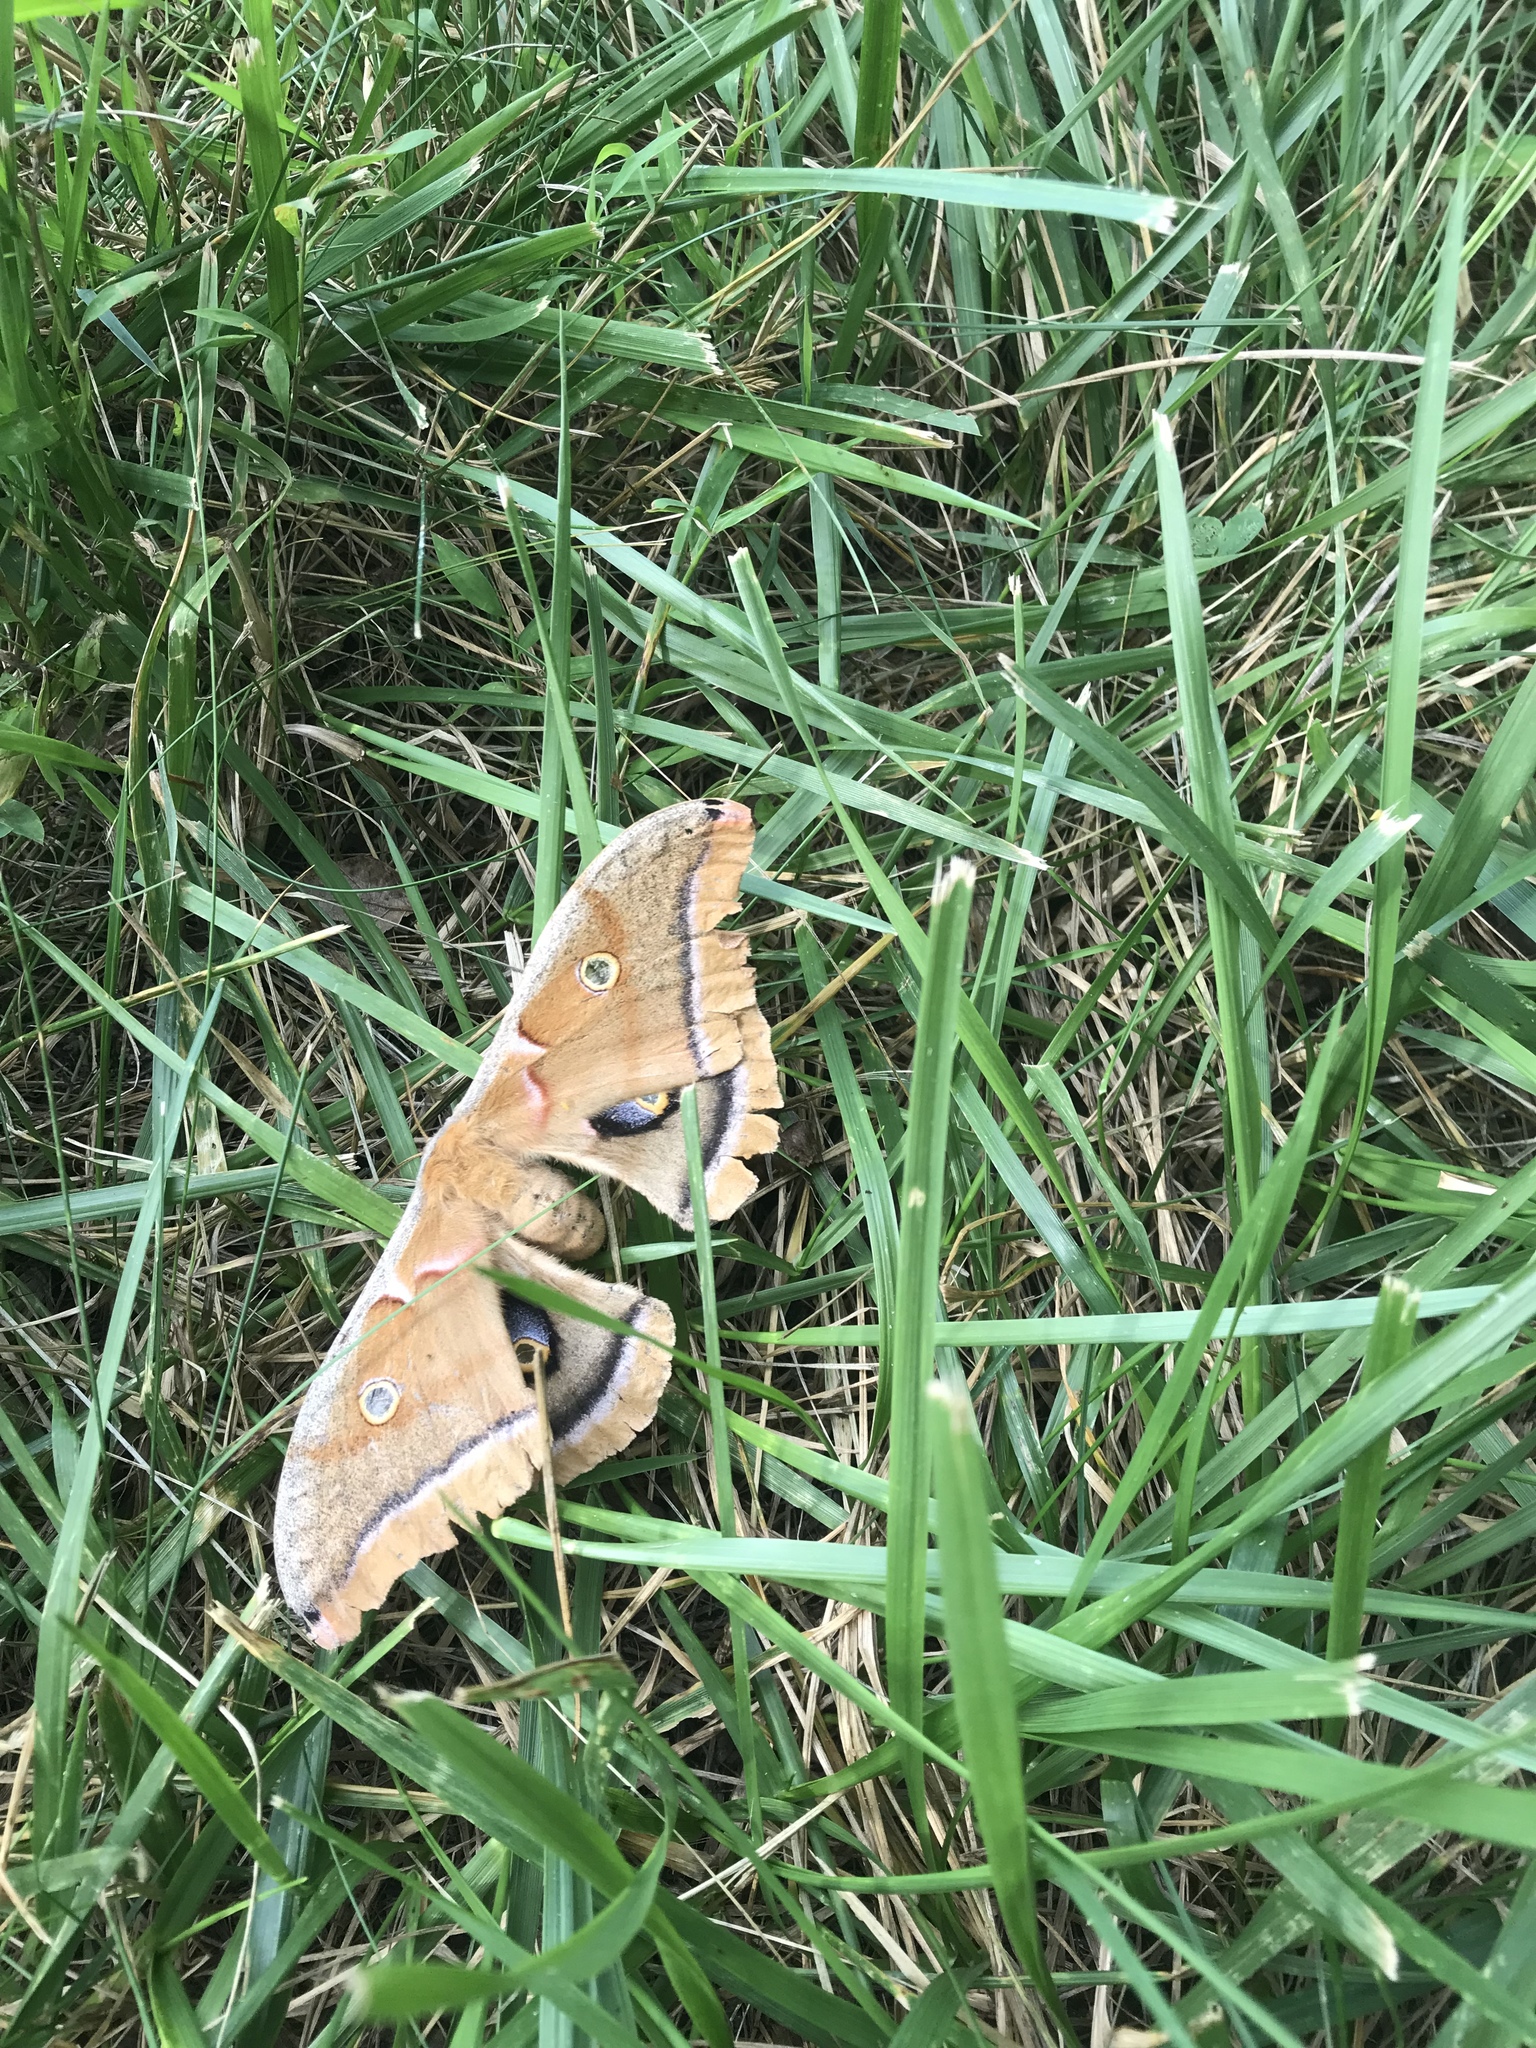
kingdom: Animalia
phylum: Arthropoda
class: Insecta
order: Lepidoptera
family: Saturniidae
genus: Antheraea
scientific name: Antheraea polyphemus
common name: Polyphemus moth
